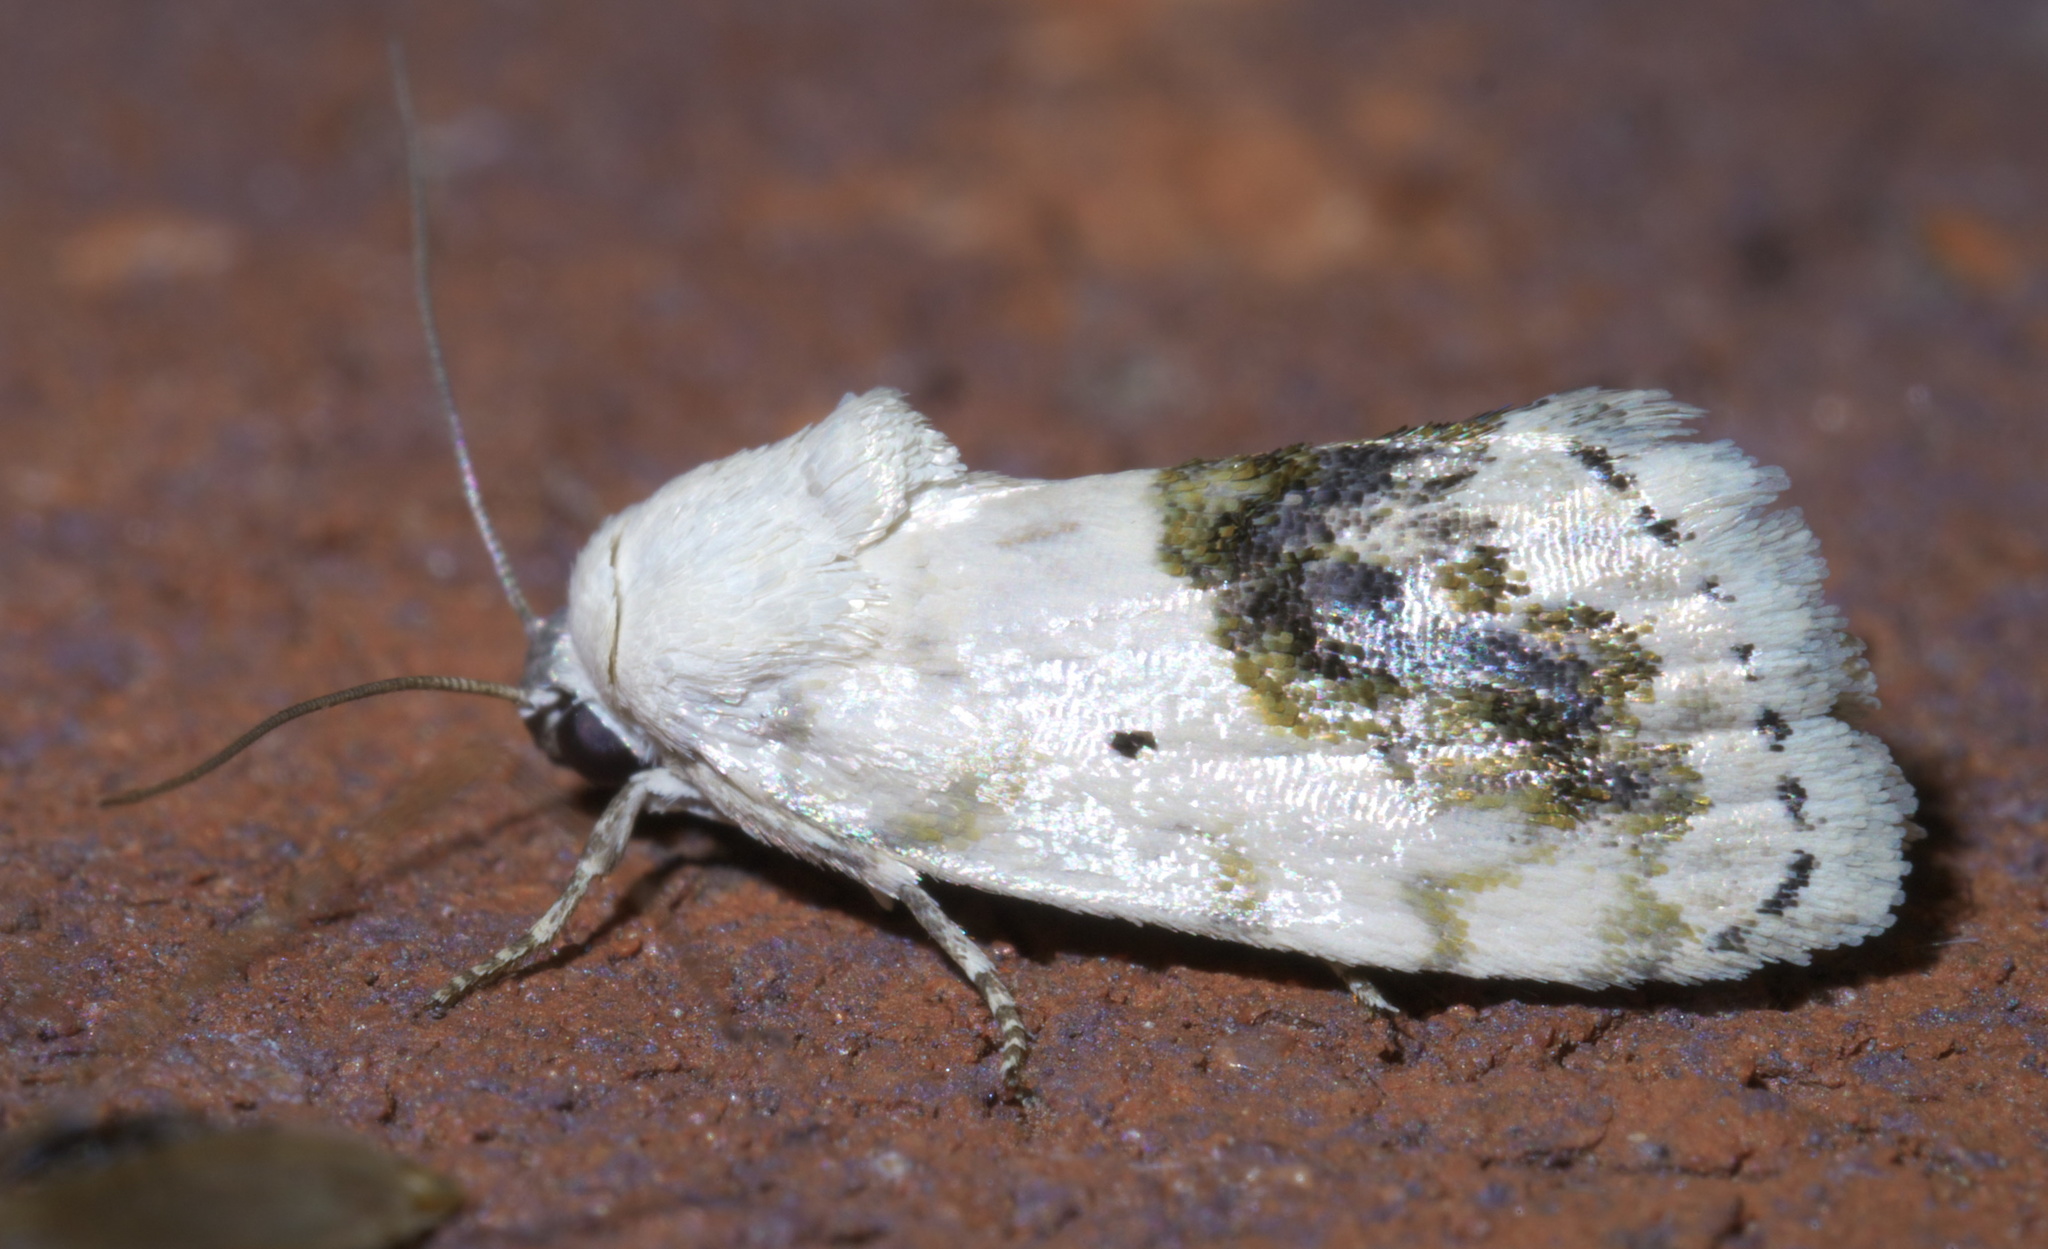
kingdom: Animalia
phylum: Arthropoda
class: Insecta
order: Lepidoptera
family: Noctuidae
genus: Acontia
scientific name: Acontia erastrioides
